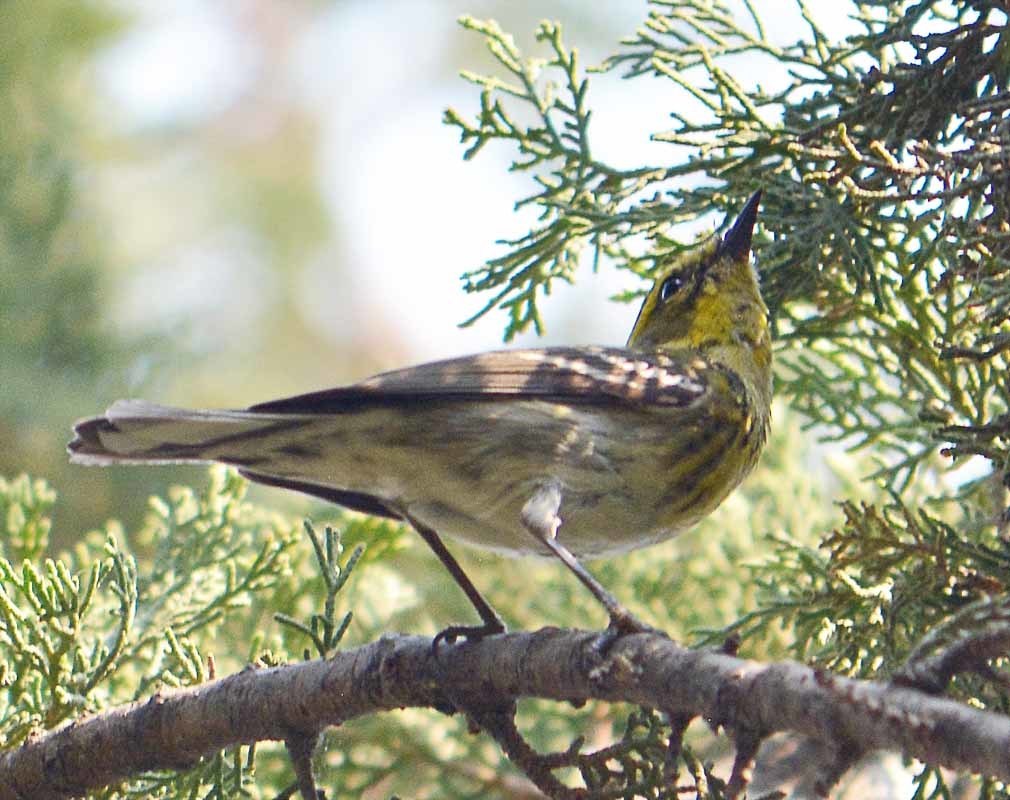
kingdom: Animalia
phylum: Chordata
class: Aves
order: Passeriformes
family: Parulidae
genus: Setophaga
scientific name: Setophaga townsendi
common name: Townsend's warbler
